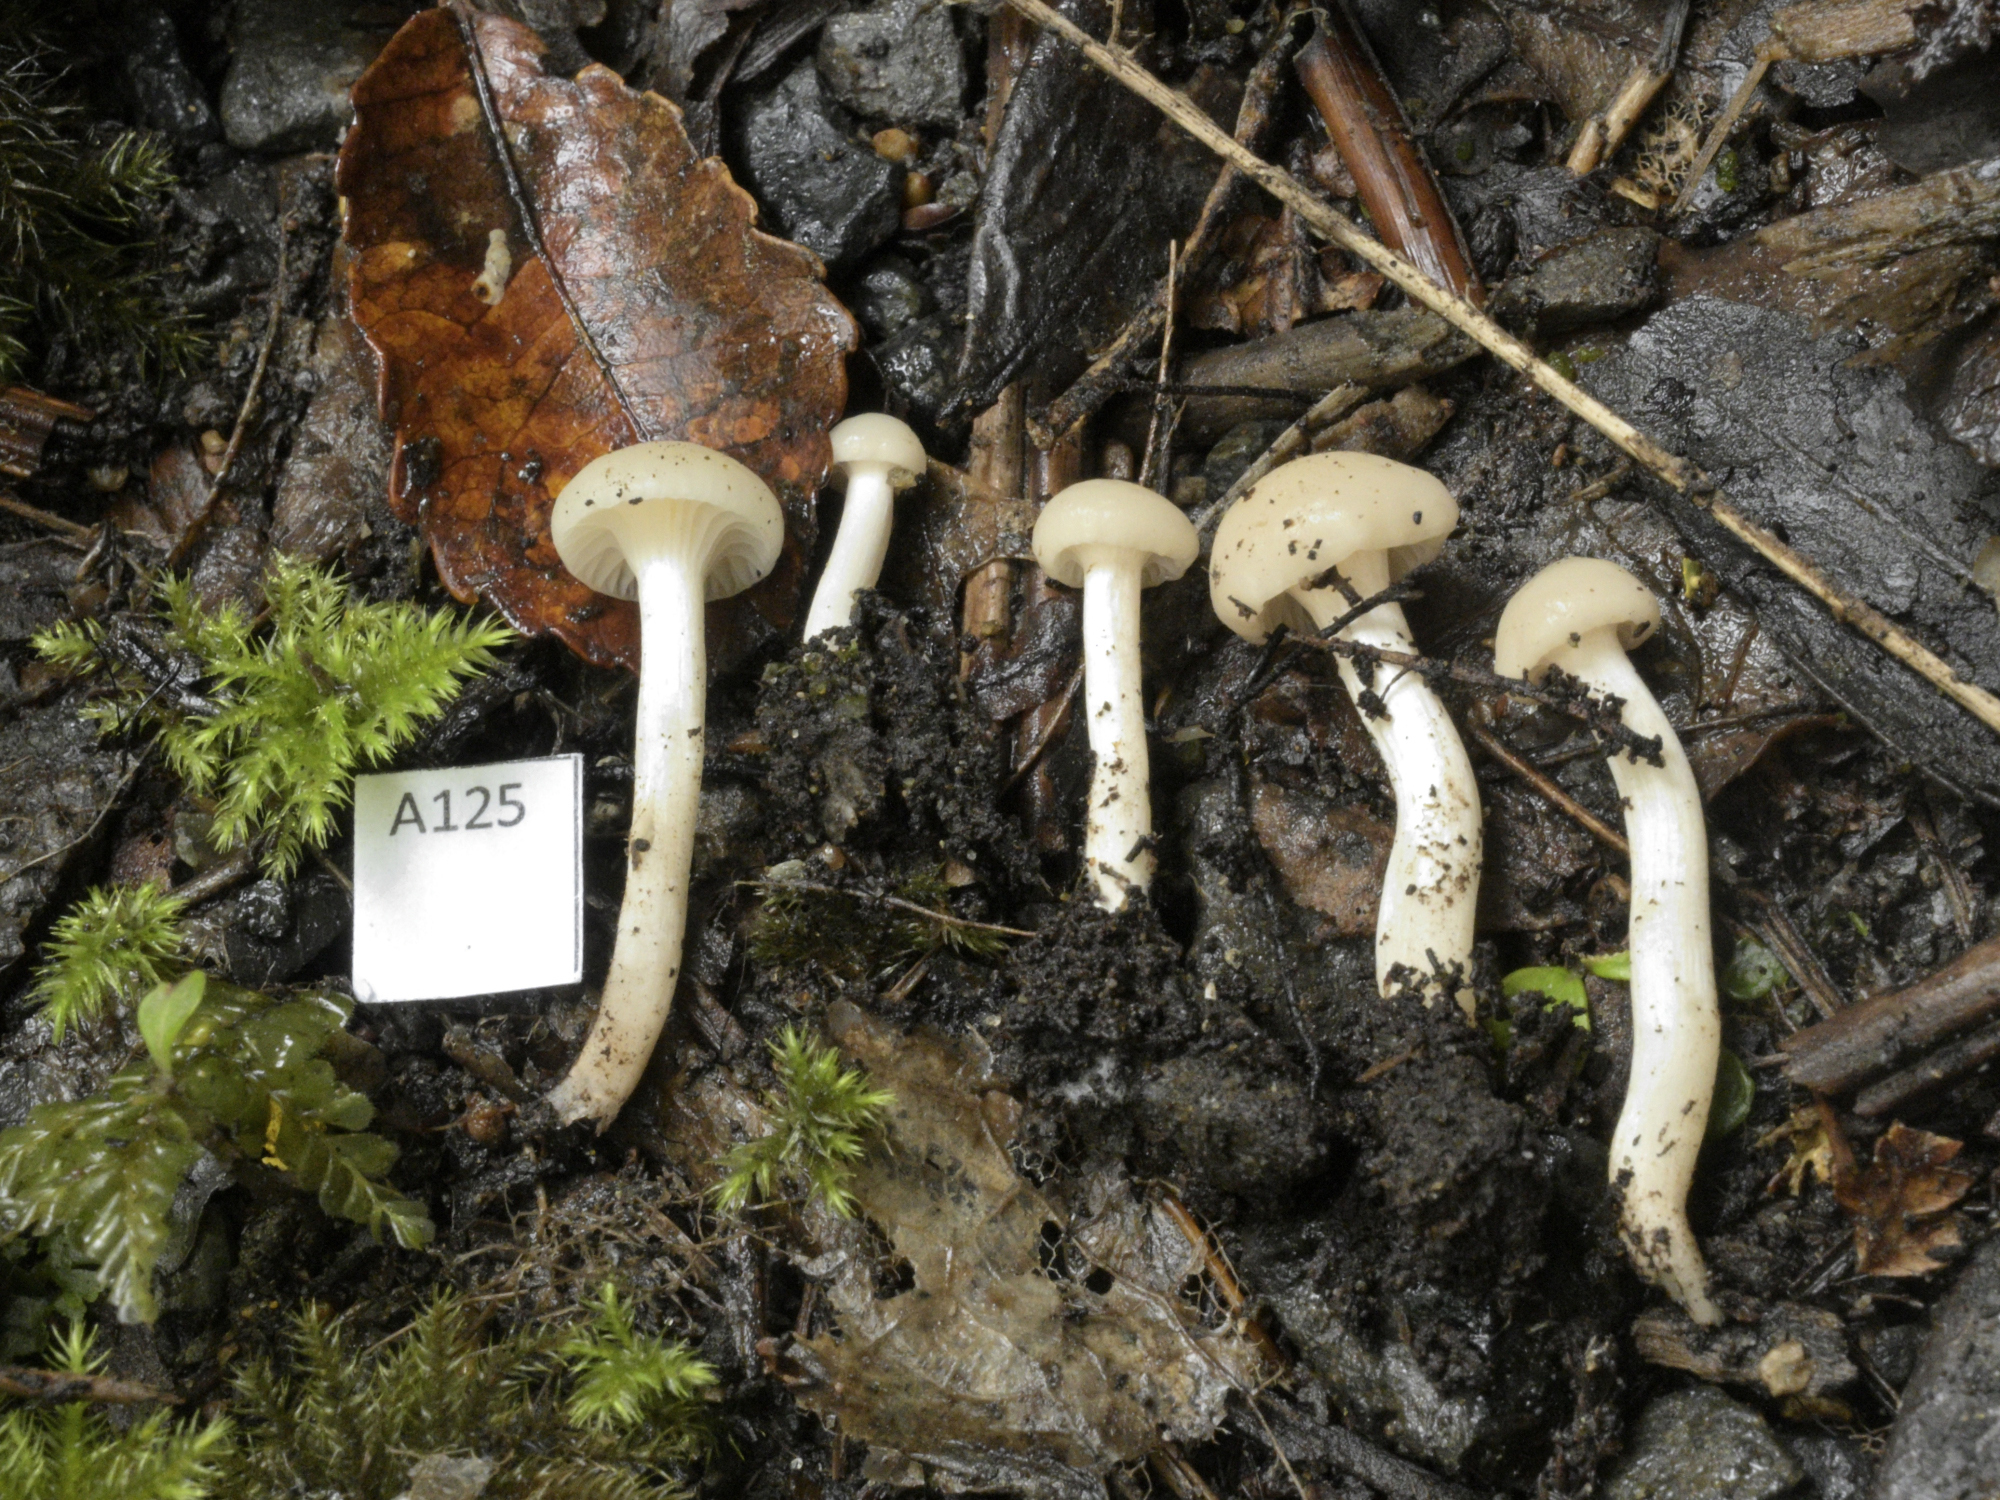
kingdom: Fungi
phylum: Basidiomycota
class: Agaricomycetes
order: Agaricales
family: Hygrophoraceae
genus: Cuphophyllus
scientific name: Cuphophyllus virgineus
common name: Snowy waxcap
